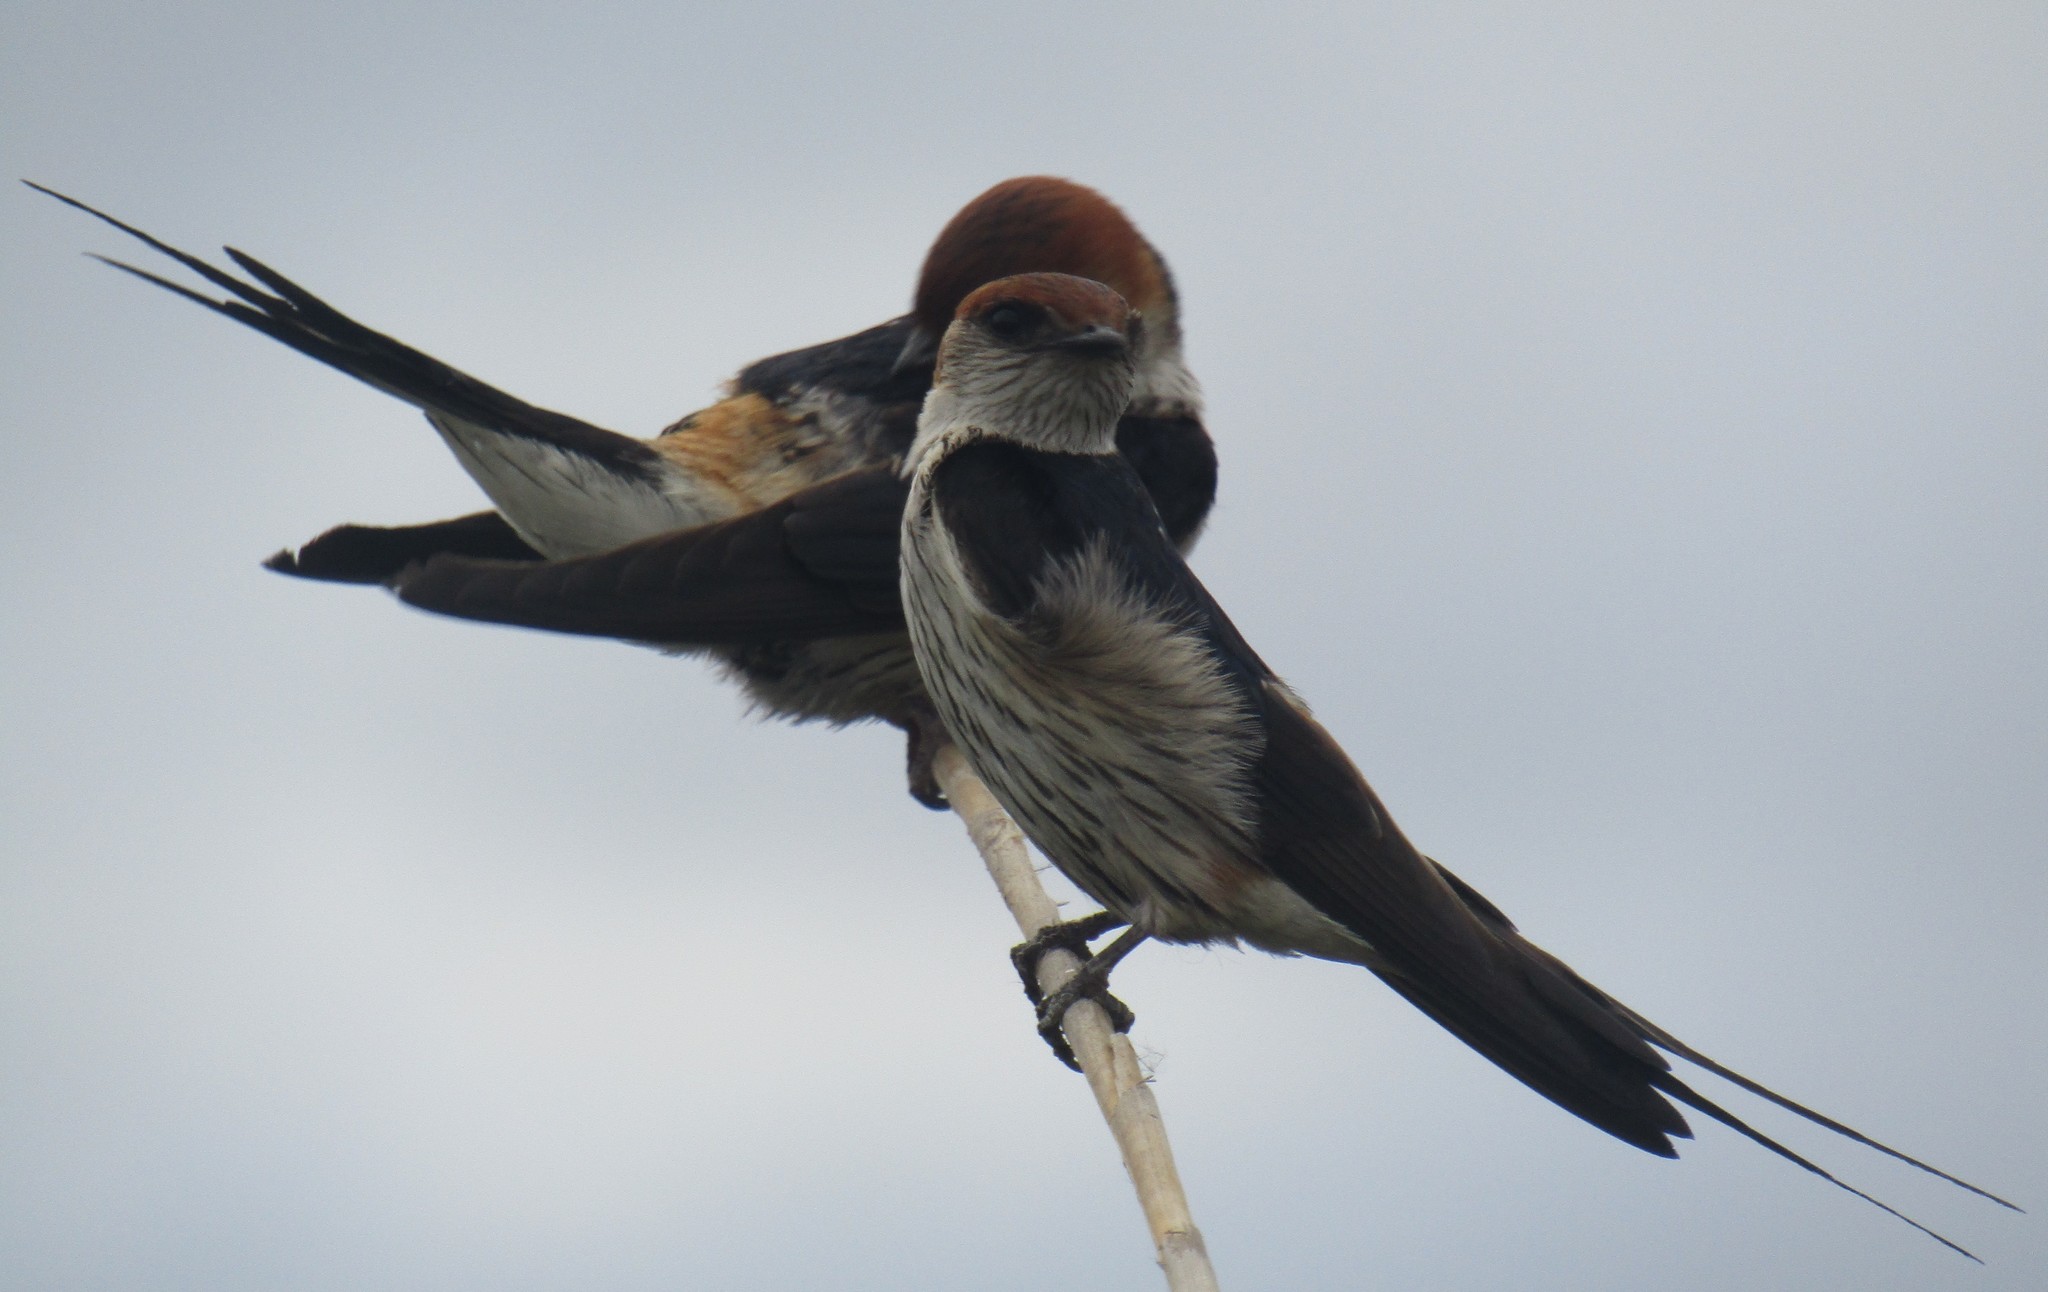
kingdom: Animalia
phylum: Chordata
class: Aves
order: Passeriformes
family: Hirundinidae
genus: Cecropis
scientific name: Cecropis cucullata
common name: Greater striped-swallow
